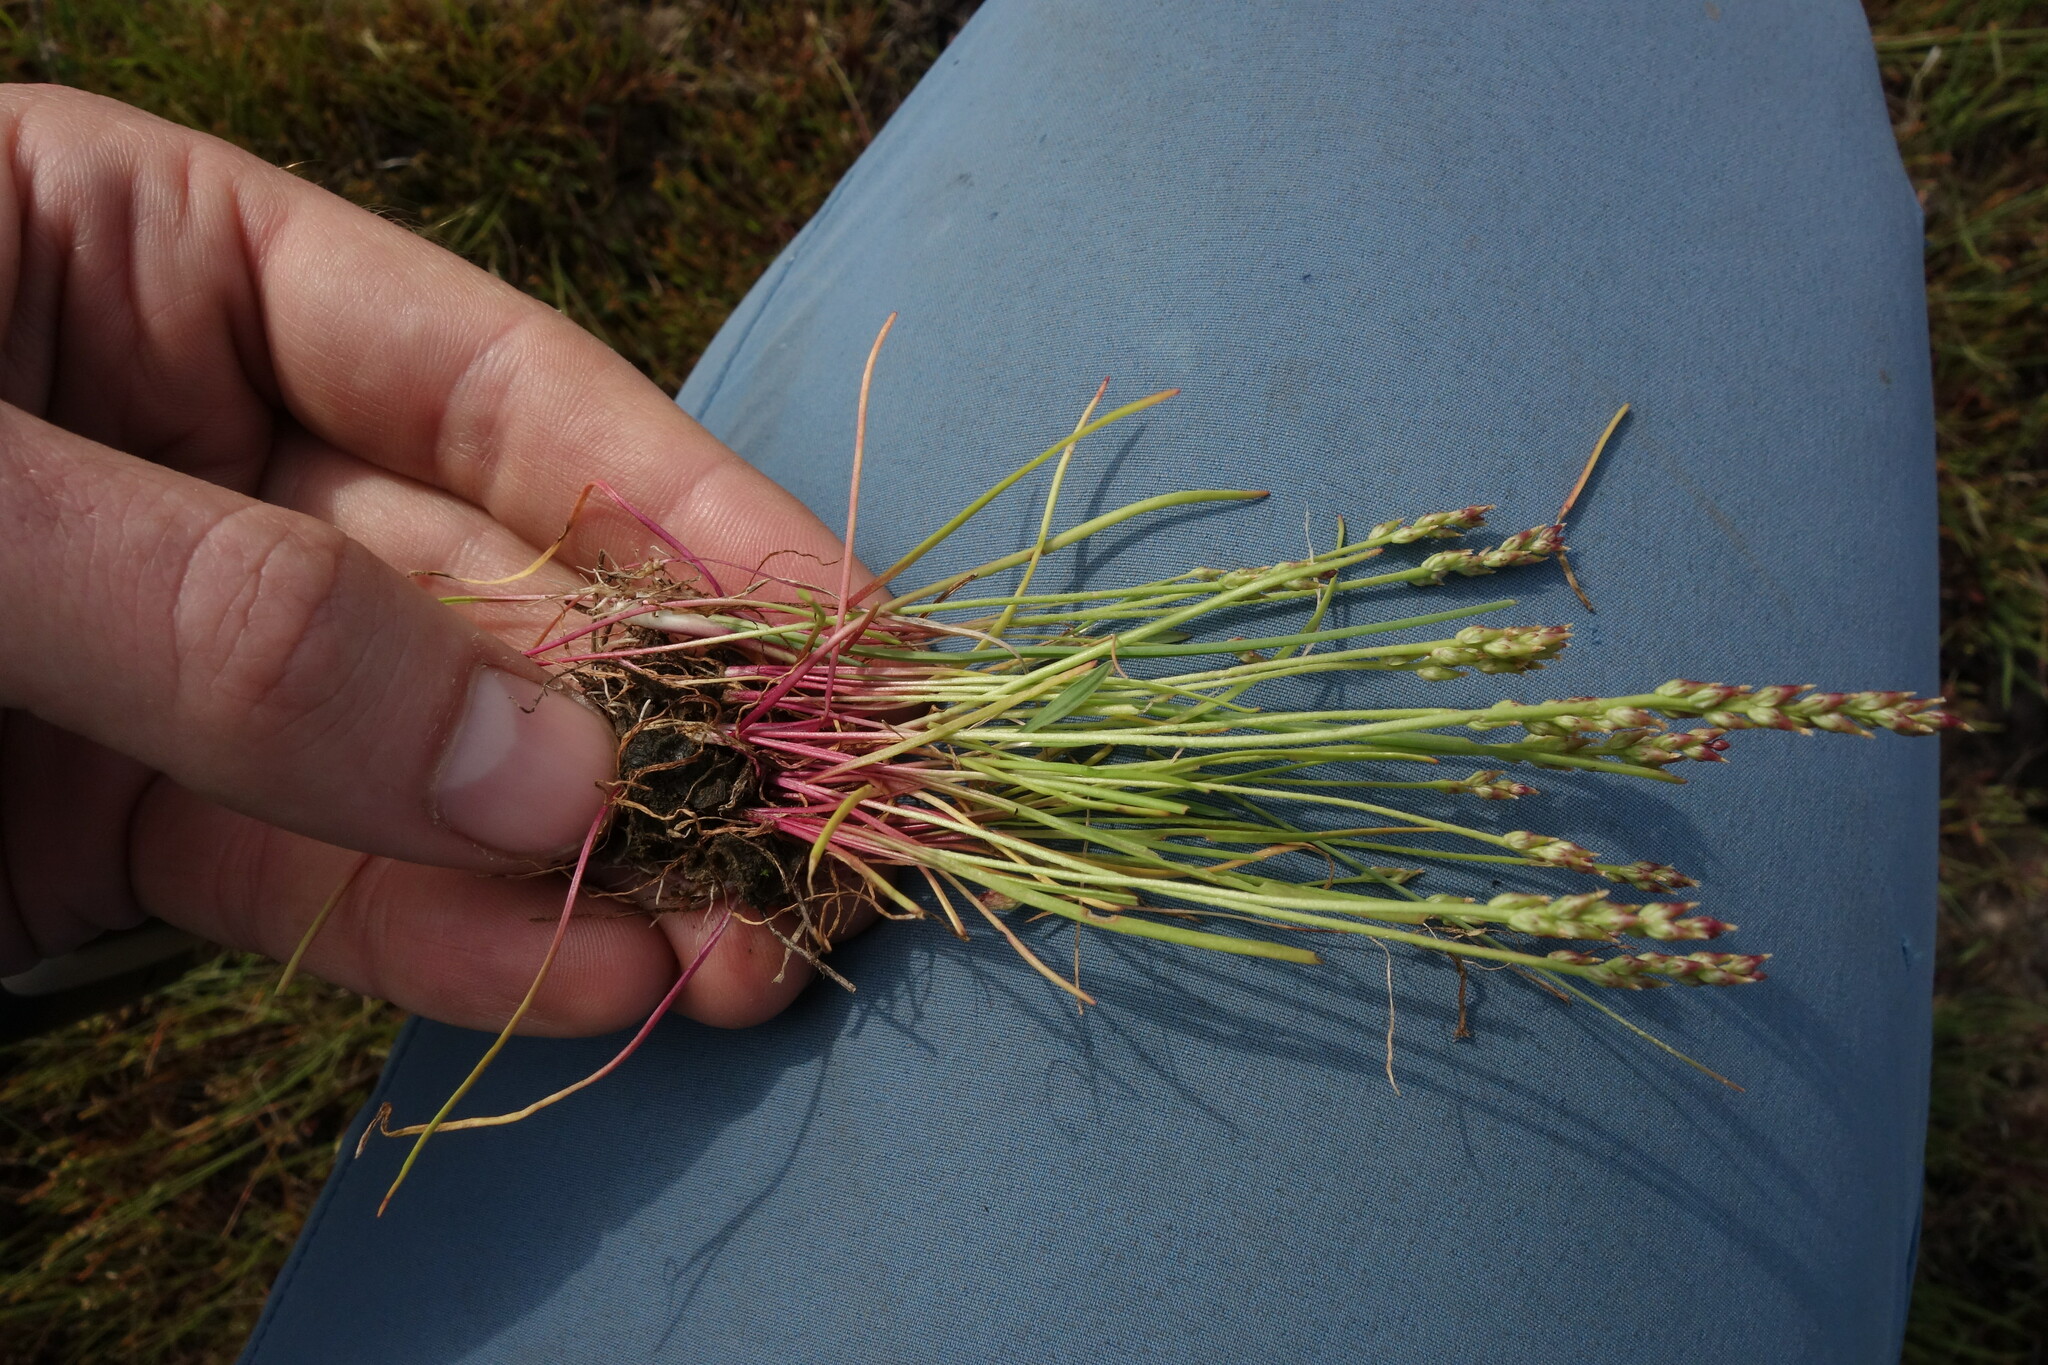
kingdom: Plantae
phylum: Tracheophyta
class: Magnoliopsida
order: Lamiales
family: Plantaginaceae
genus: Plantago
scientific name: Plantago tenuiflora
